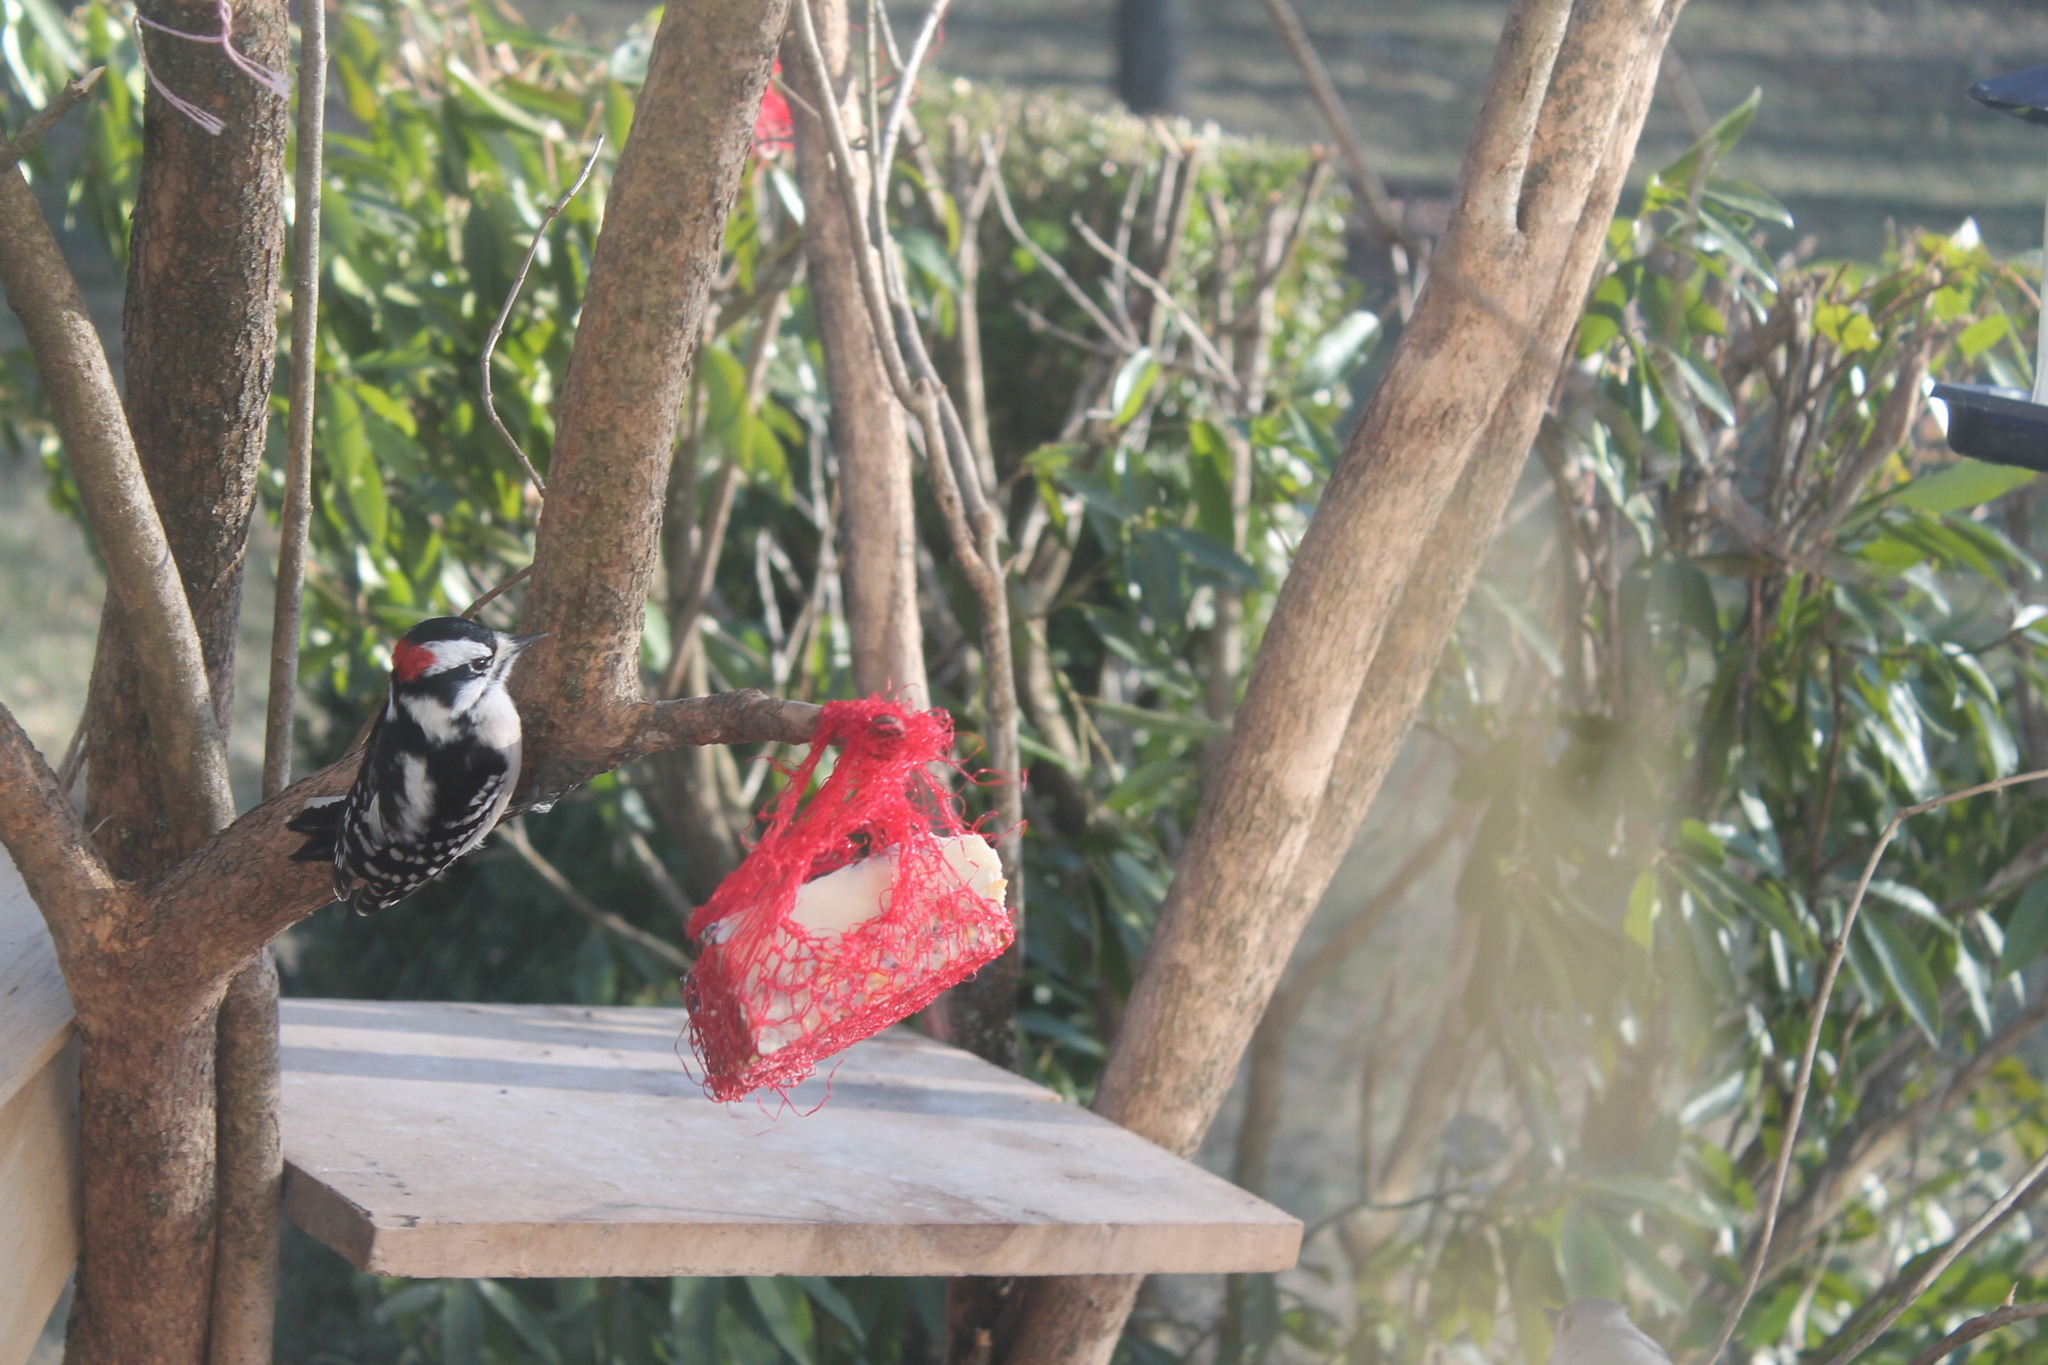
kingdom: Animalia
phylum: Chordata
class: Aves
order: Piciformes
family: Picidae
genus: Dryobates
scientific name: Dryobates pubescens
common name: Downy woodpecker
